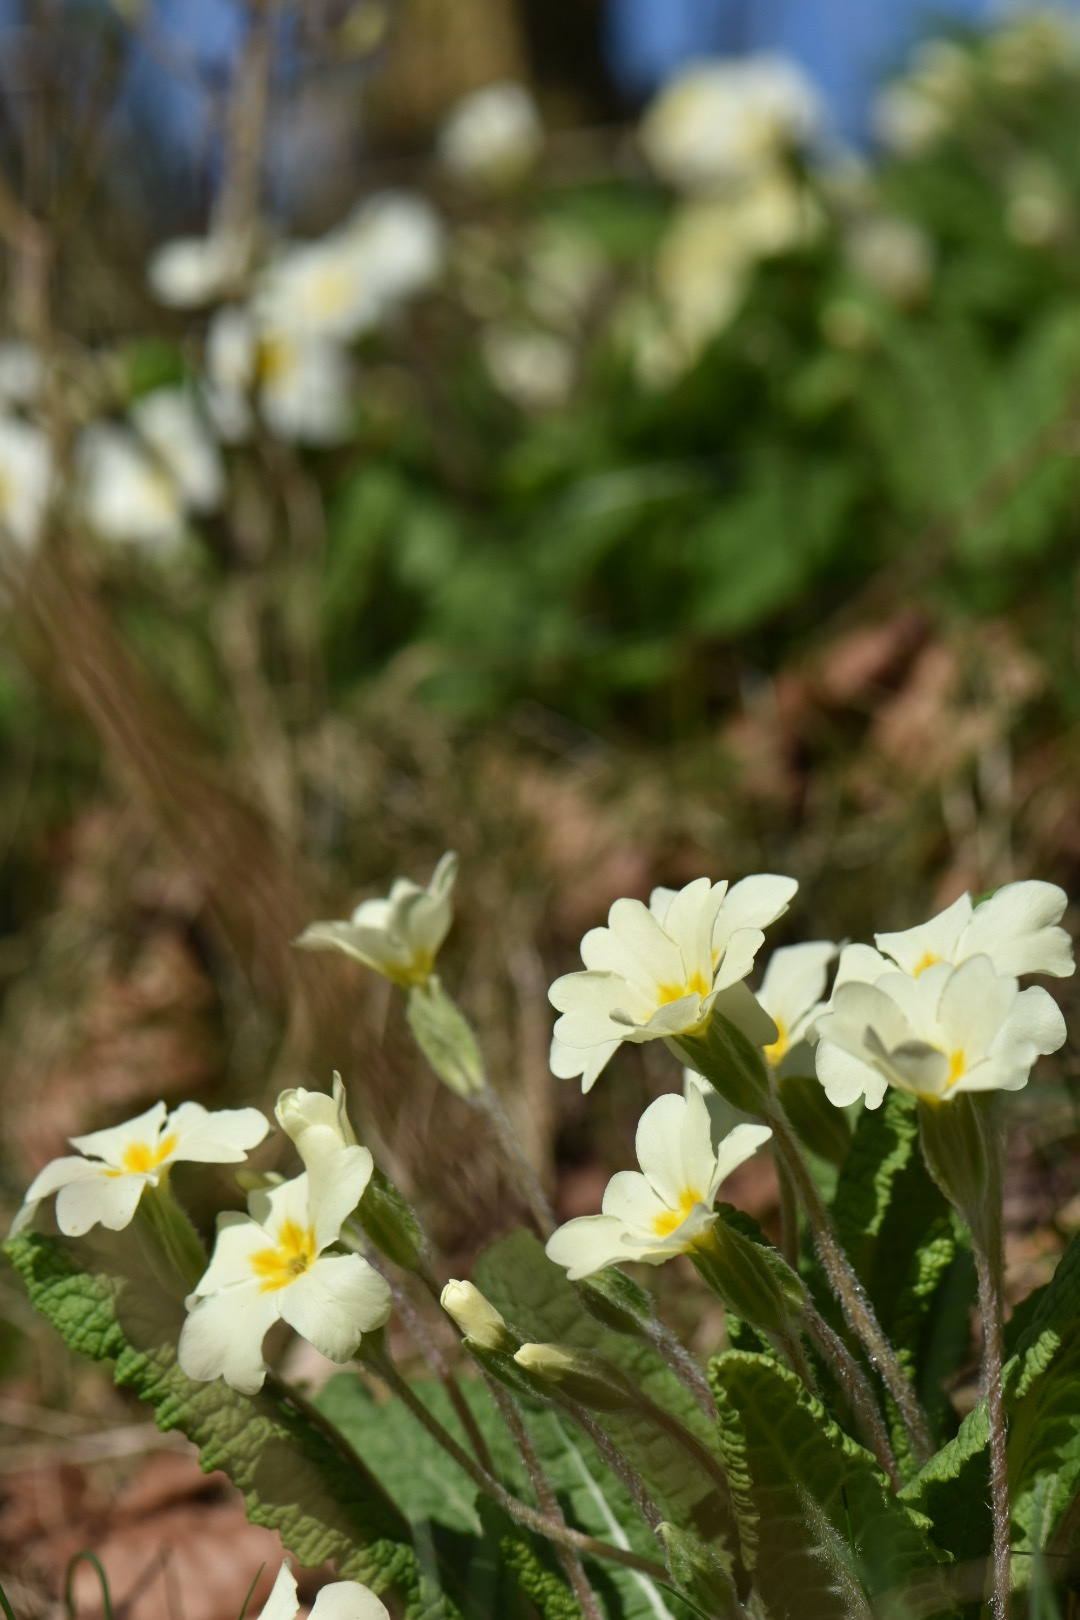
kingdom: Plantae
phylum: Tracheophyta
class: Magnoliopsida
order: Ericales
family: Primulaceae
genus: Primula
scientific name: Primula vulgaris
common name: Primrose
